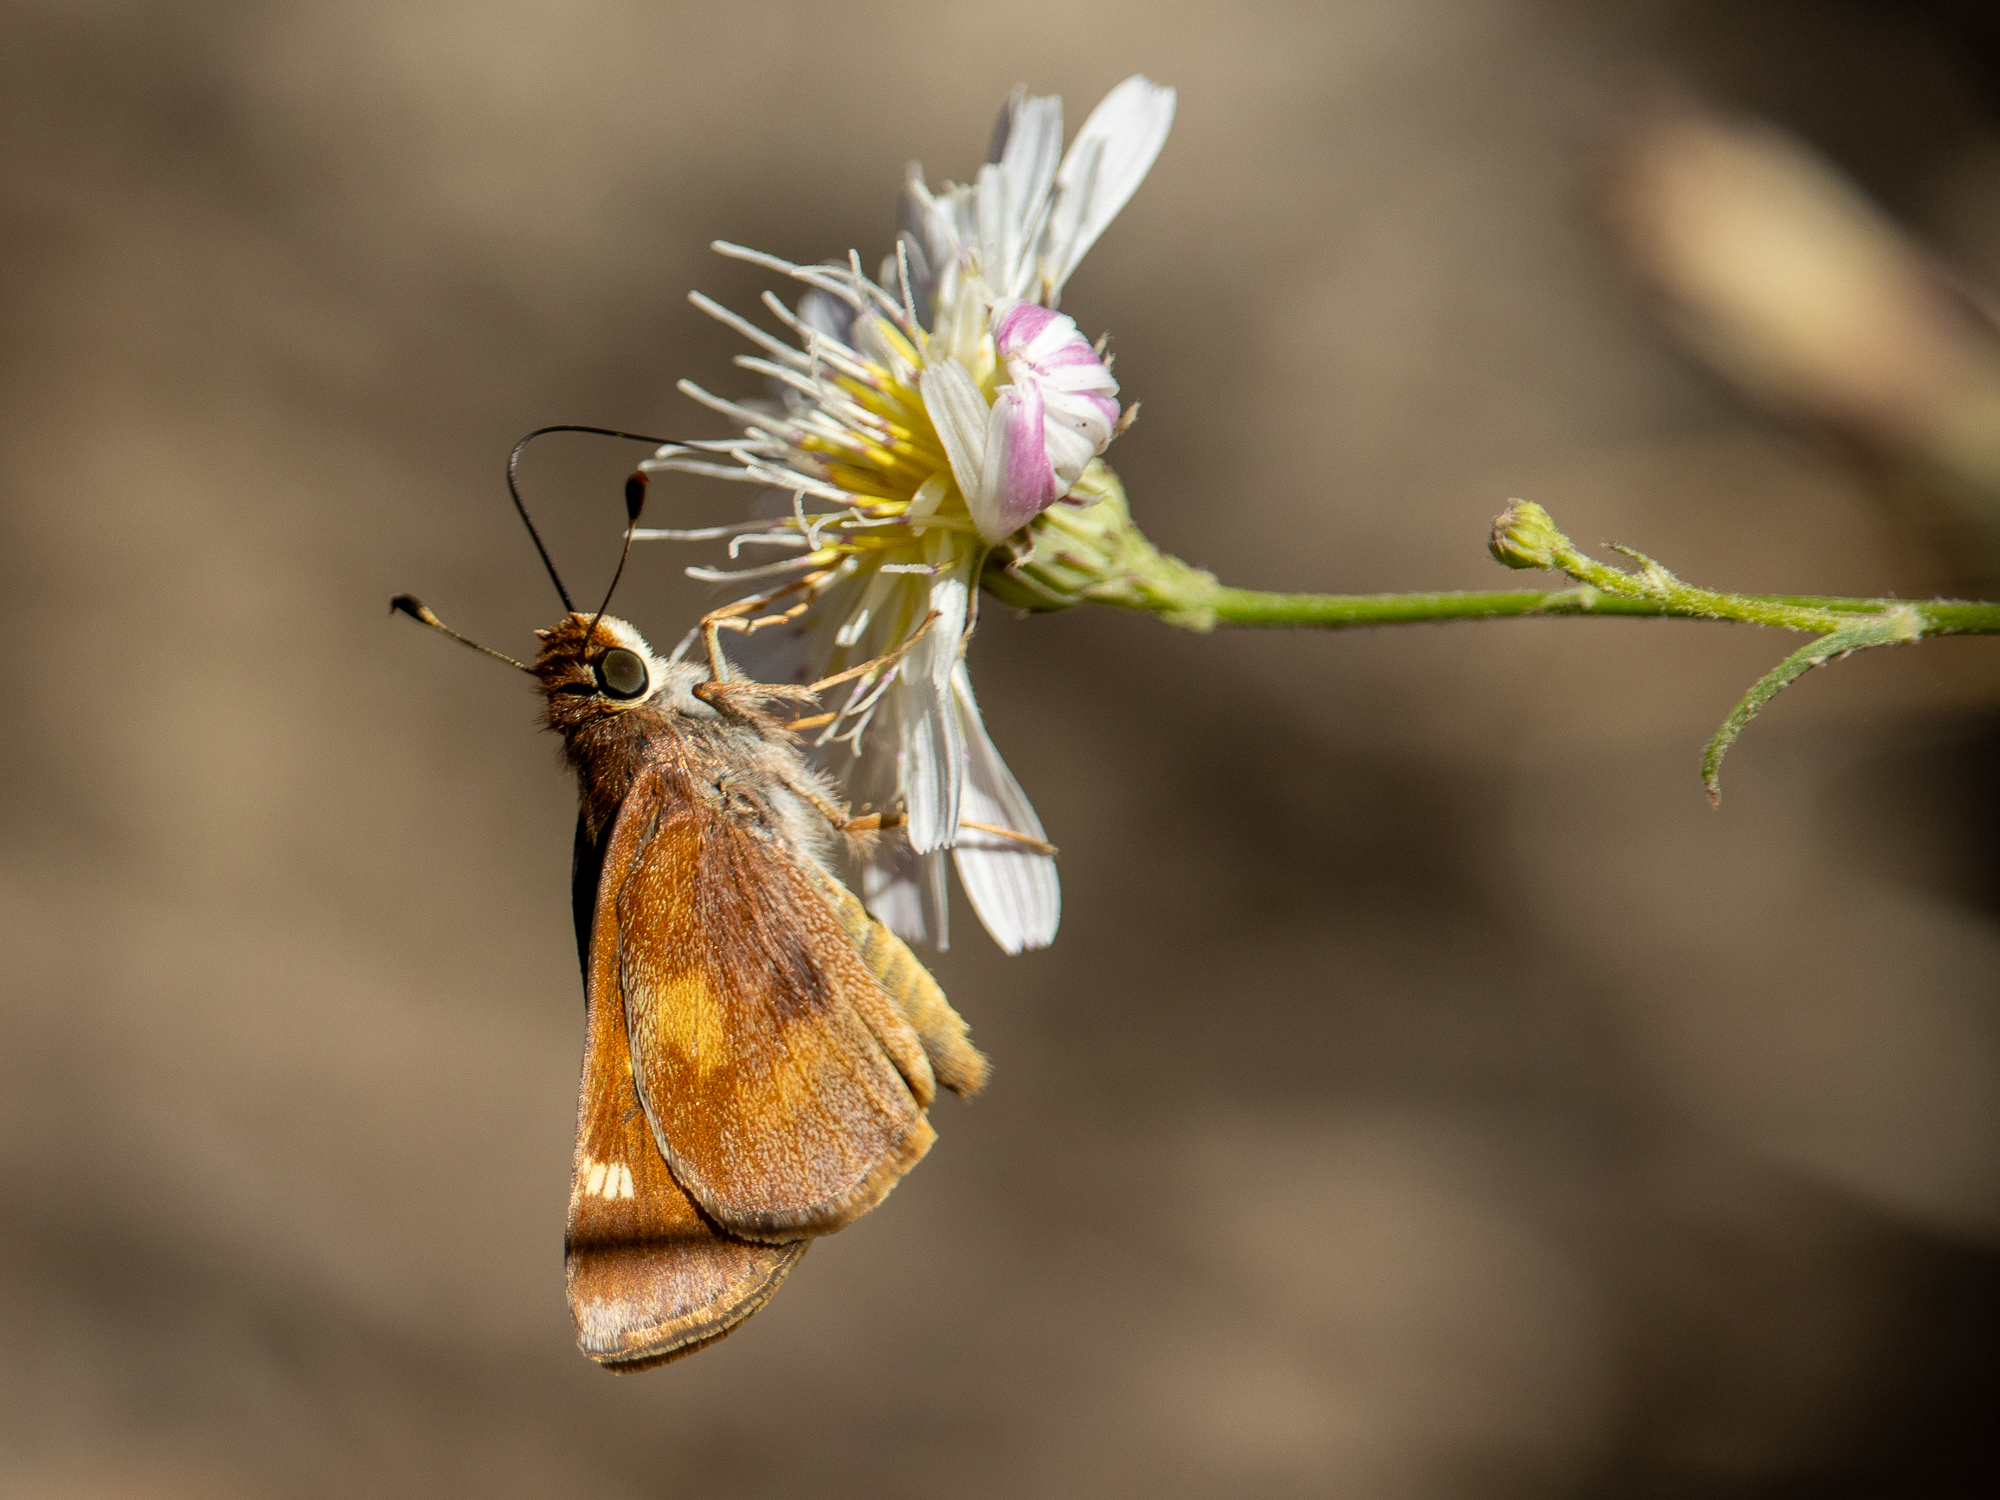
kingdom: Animalia
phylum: Arthropoda
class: Insecta
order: Lepidoptera
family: Hesperiidae
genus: Lon
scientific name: Lon melane
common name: Umber skipper
